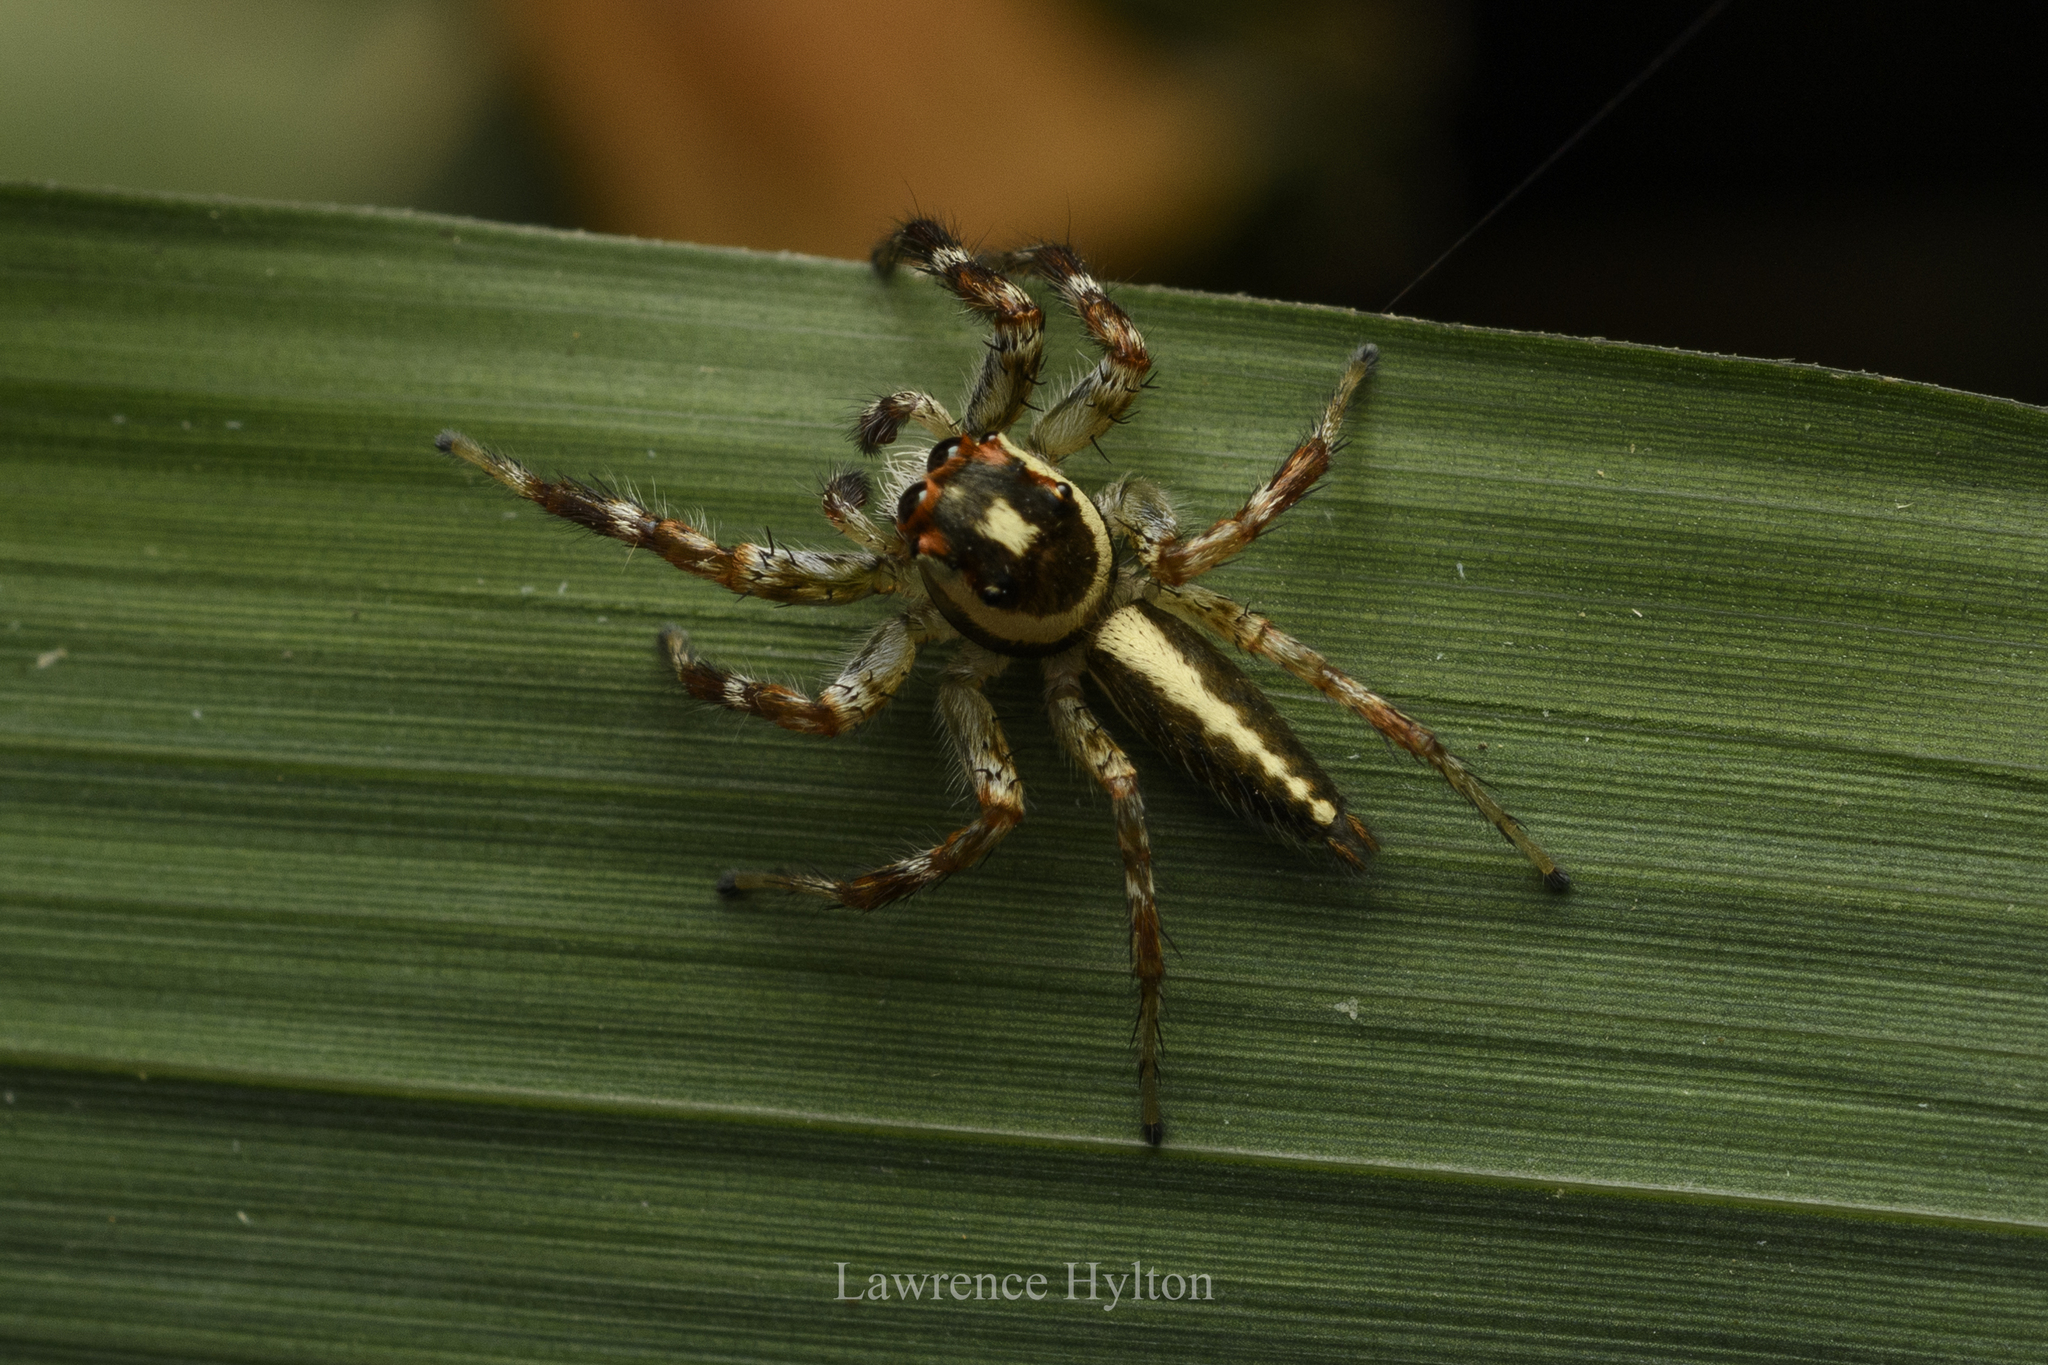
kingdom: Animalia
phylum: Arthropoda
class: Arachnida
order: Araneae
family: Salticidae
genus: Telamonia
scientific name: Telamonia caprina
